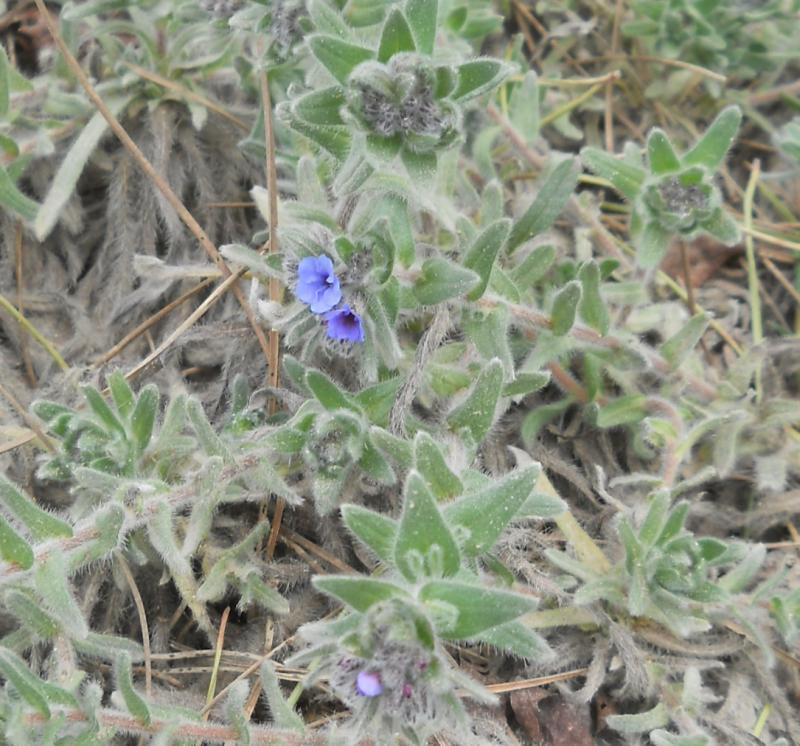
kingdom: Plantae
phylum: Tracheophyta
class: Magnoliopsida
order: Boraginales
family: Boraginaceae
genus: Alkanna
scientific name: Alkanna tinctoria
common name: Dyer's-alkanet
